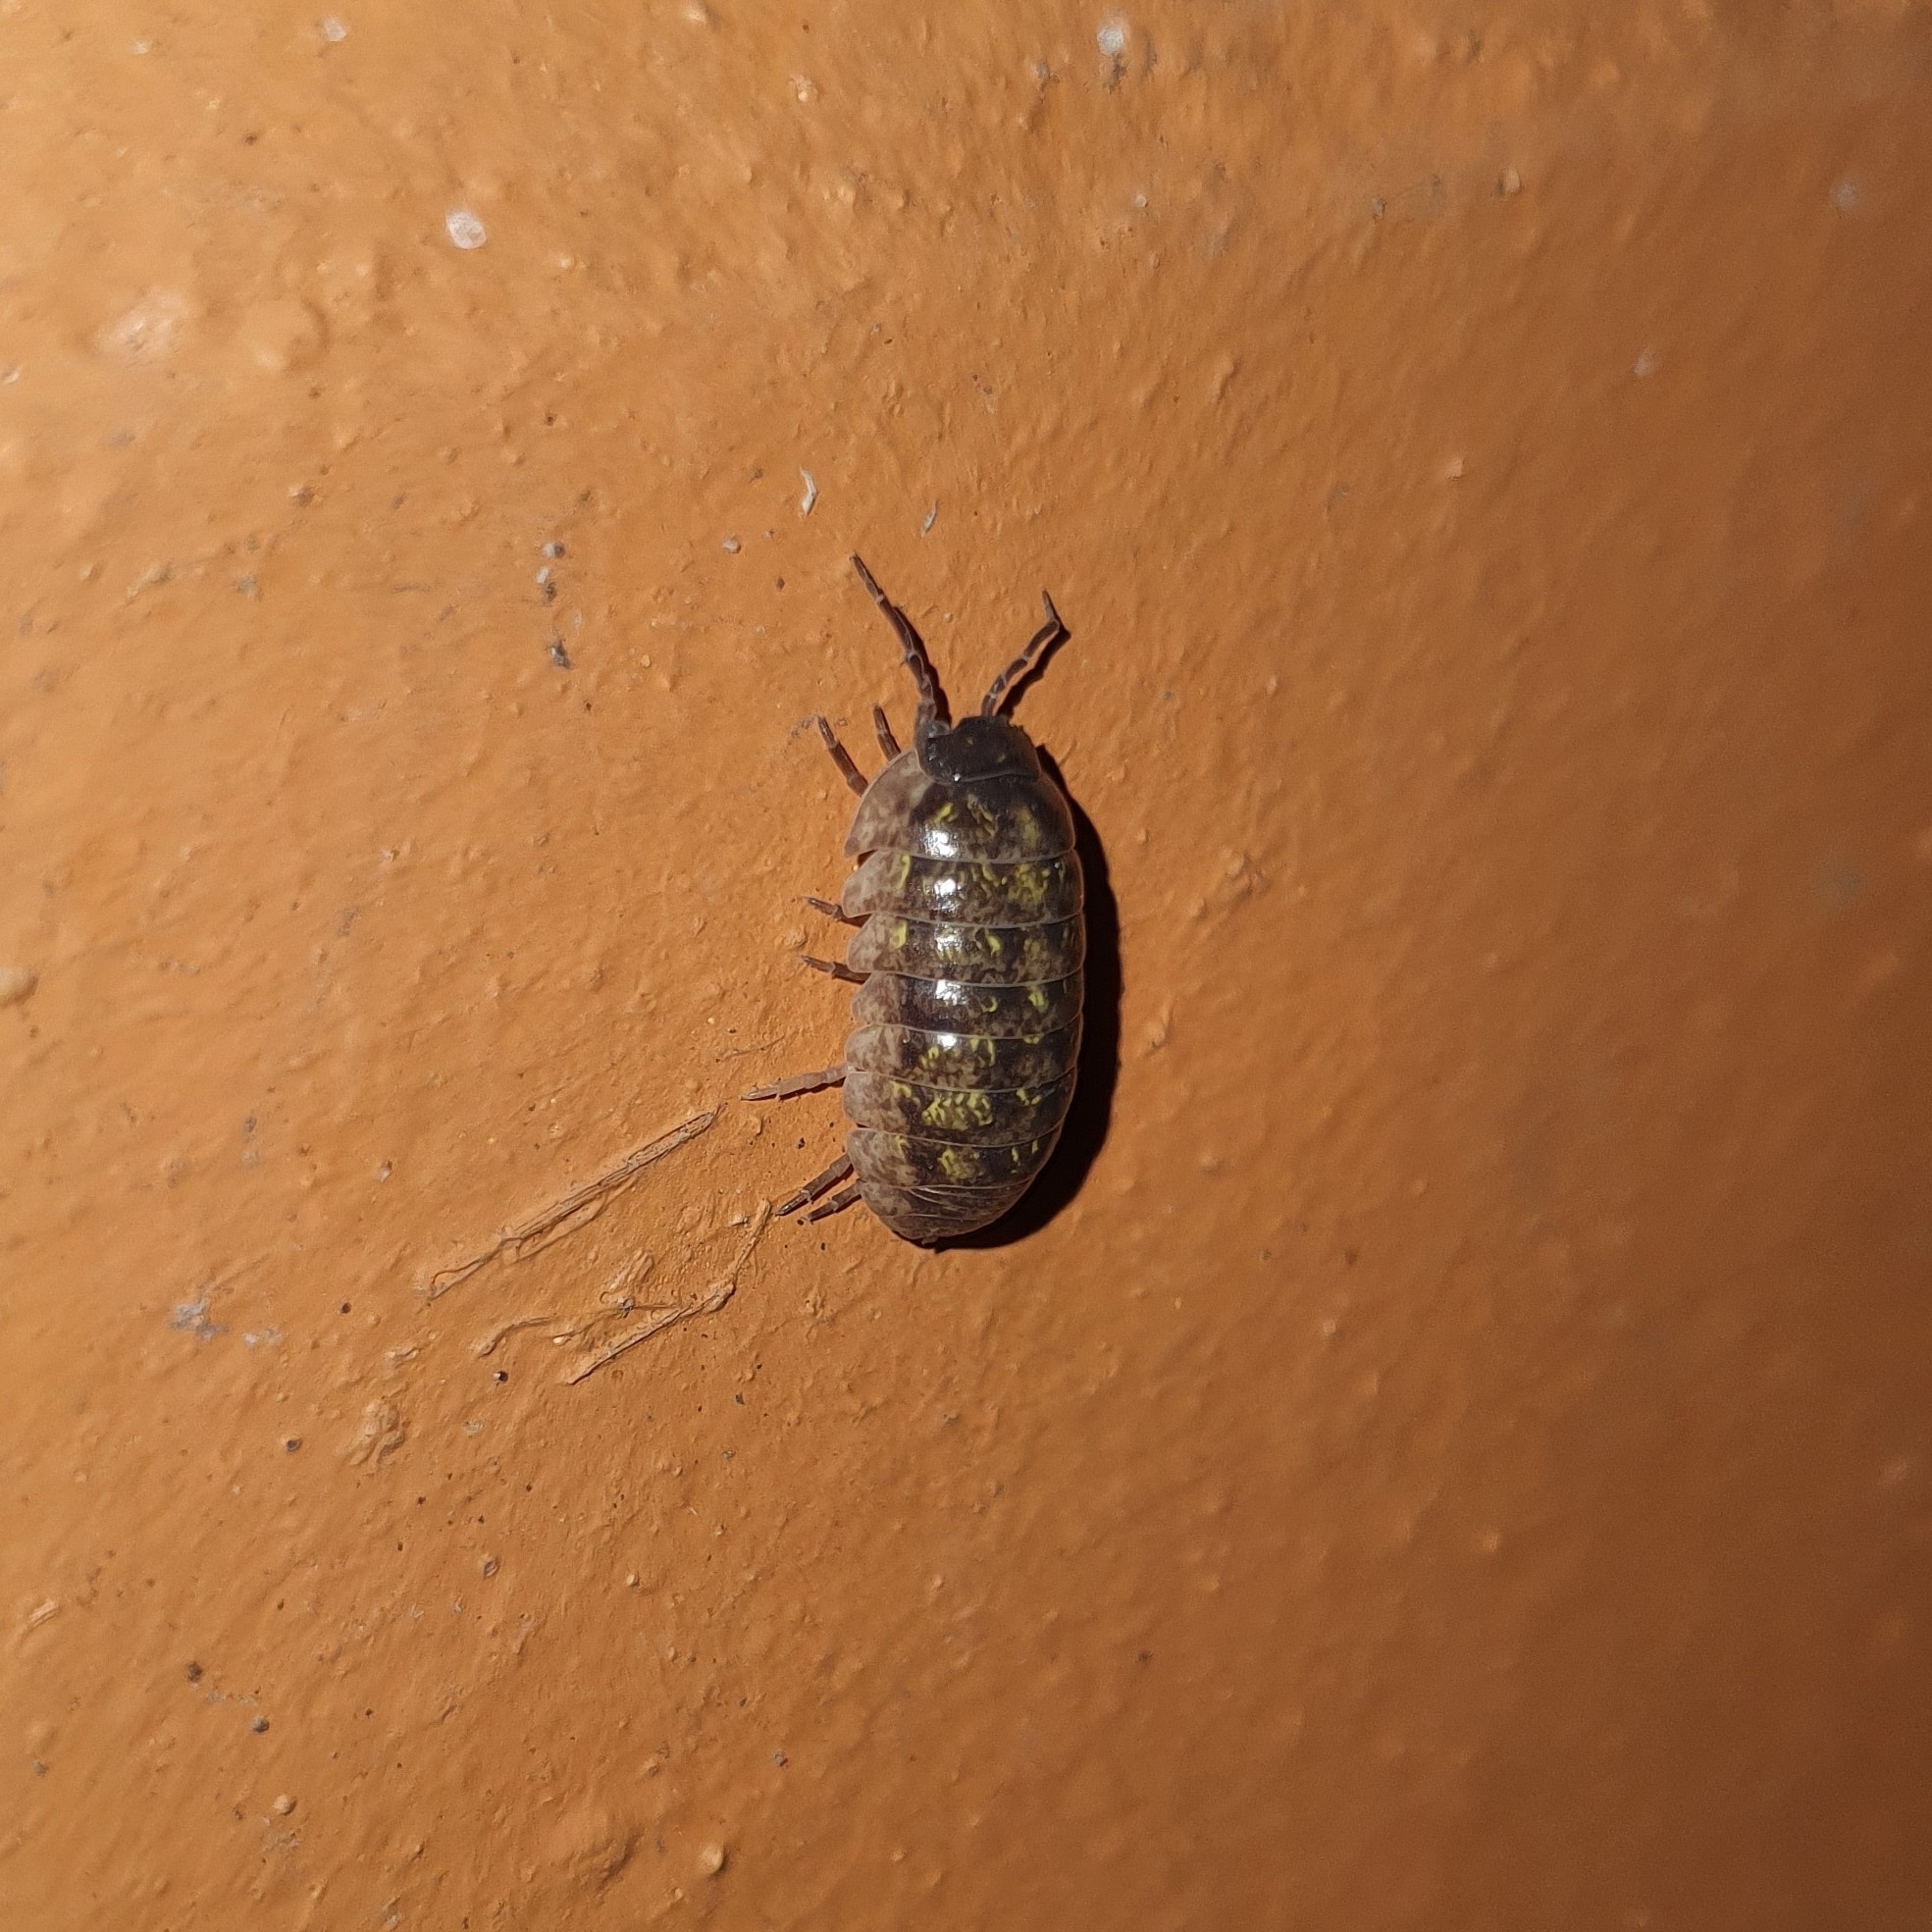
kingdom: Animalia
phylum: Arthropoda
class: Malacostraca
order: Isopoda
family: Armadillidiidae
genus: Armadillidium
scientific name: Armadillidium vulgare
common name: Common pill woodlouse
